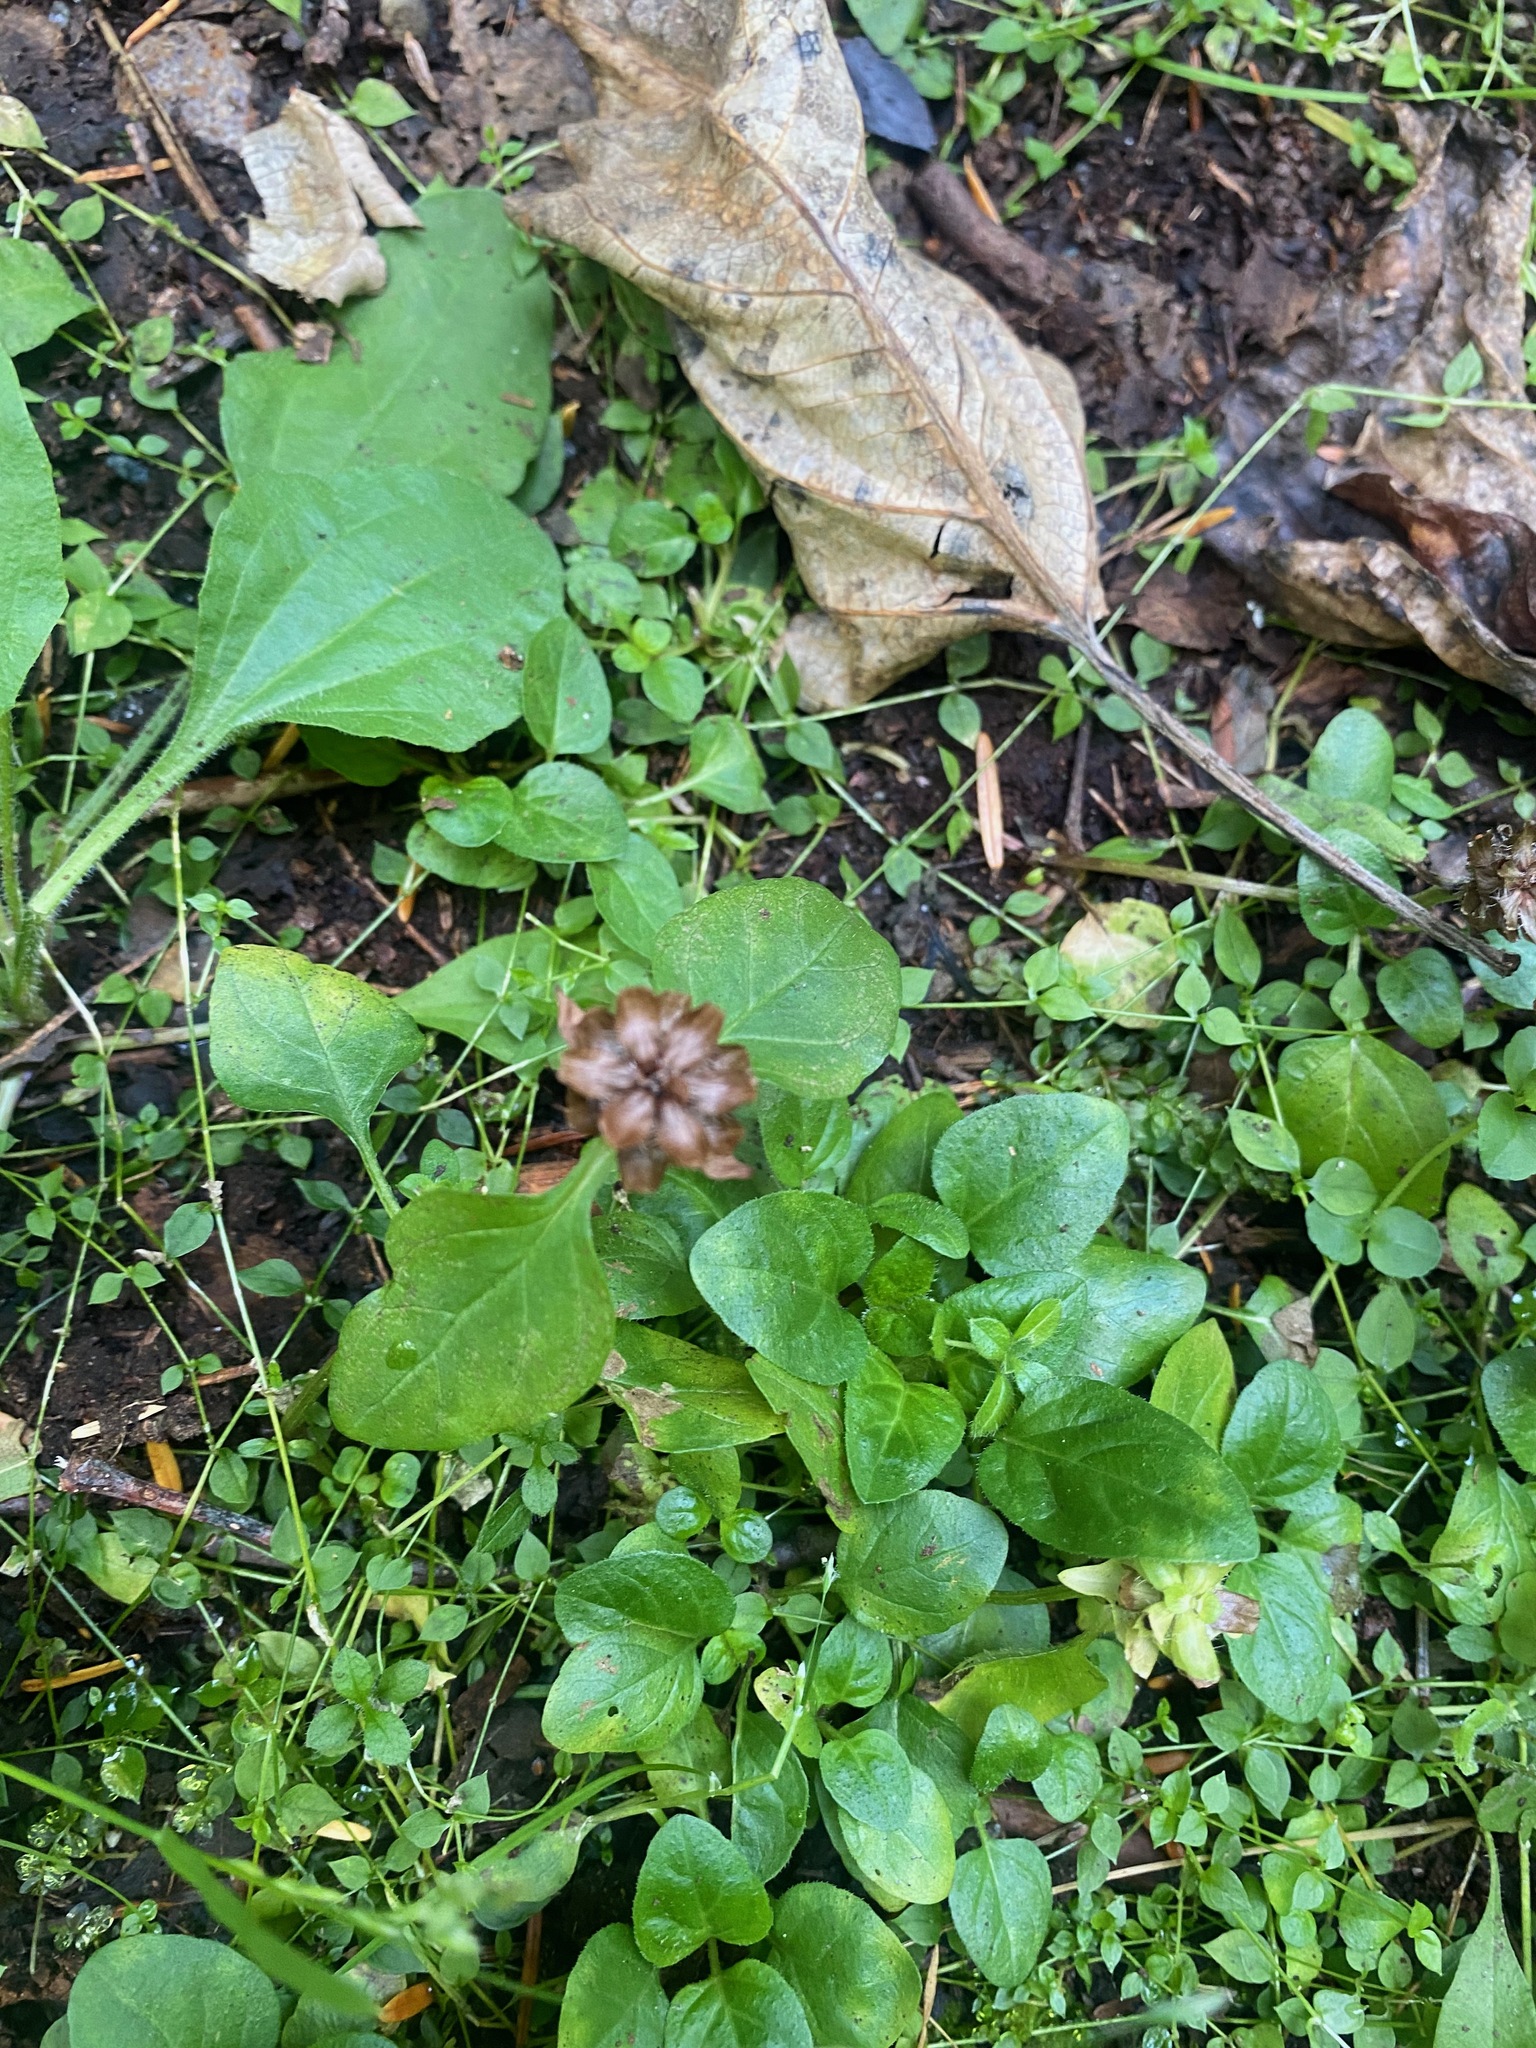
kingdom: Plantae
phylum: Tracheophyta
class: Magnoliopsida
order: Lamiales
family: Lamiaceae
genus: Prunella
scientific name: Prunella vulgaris
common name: Heal-all
